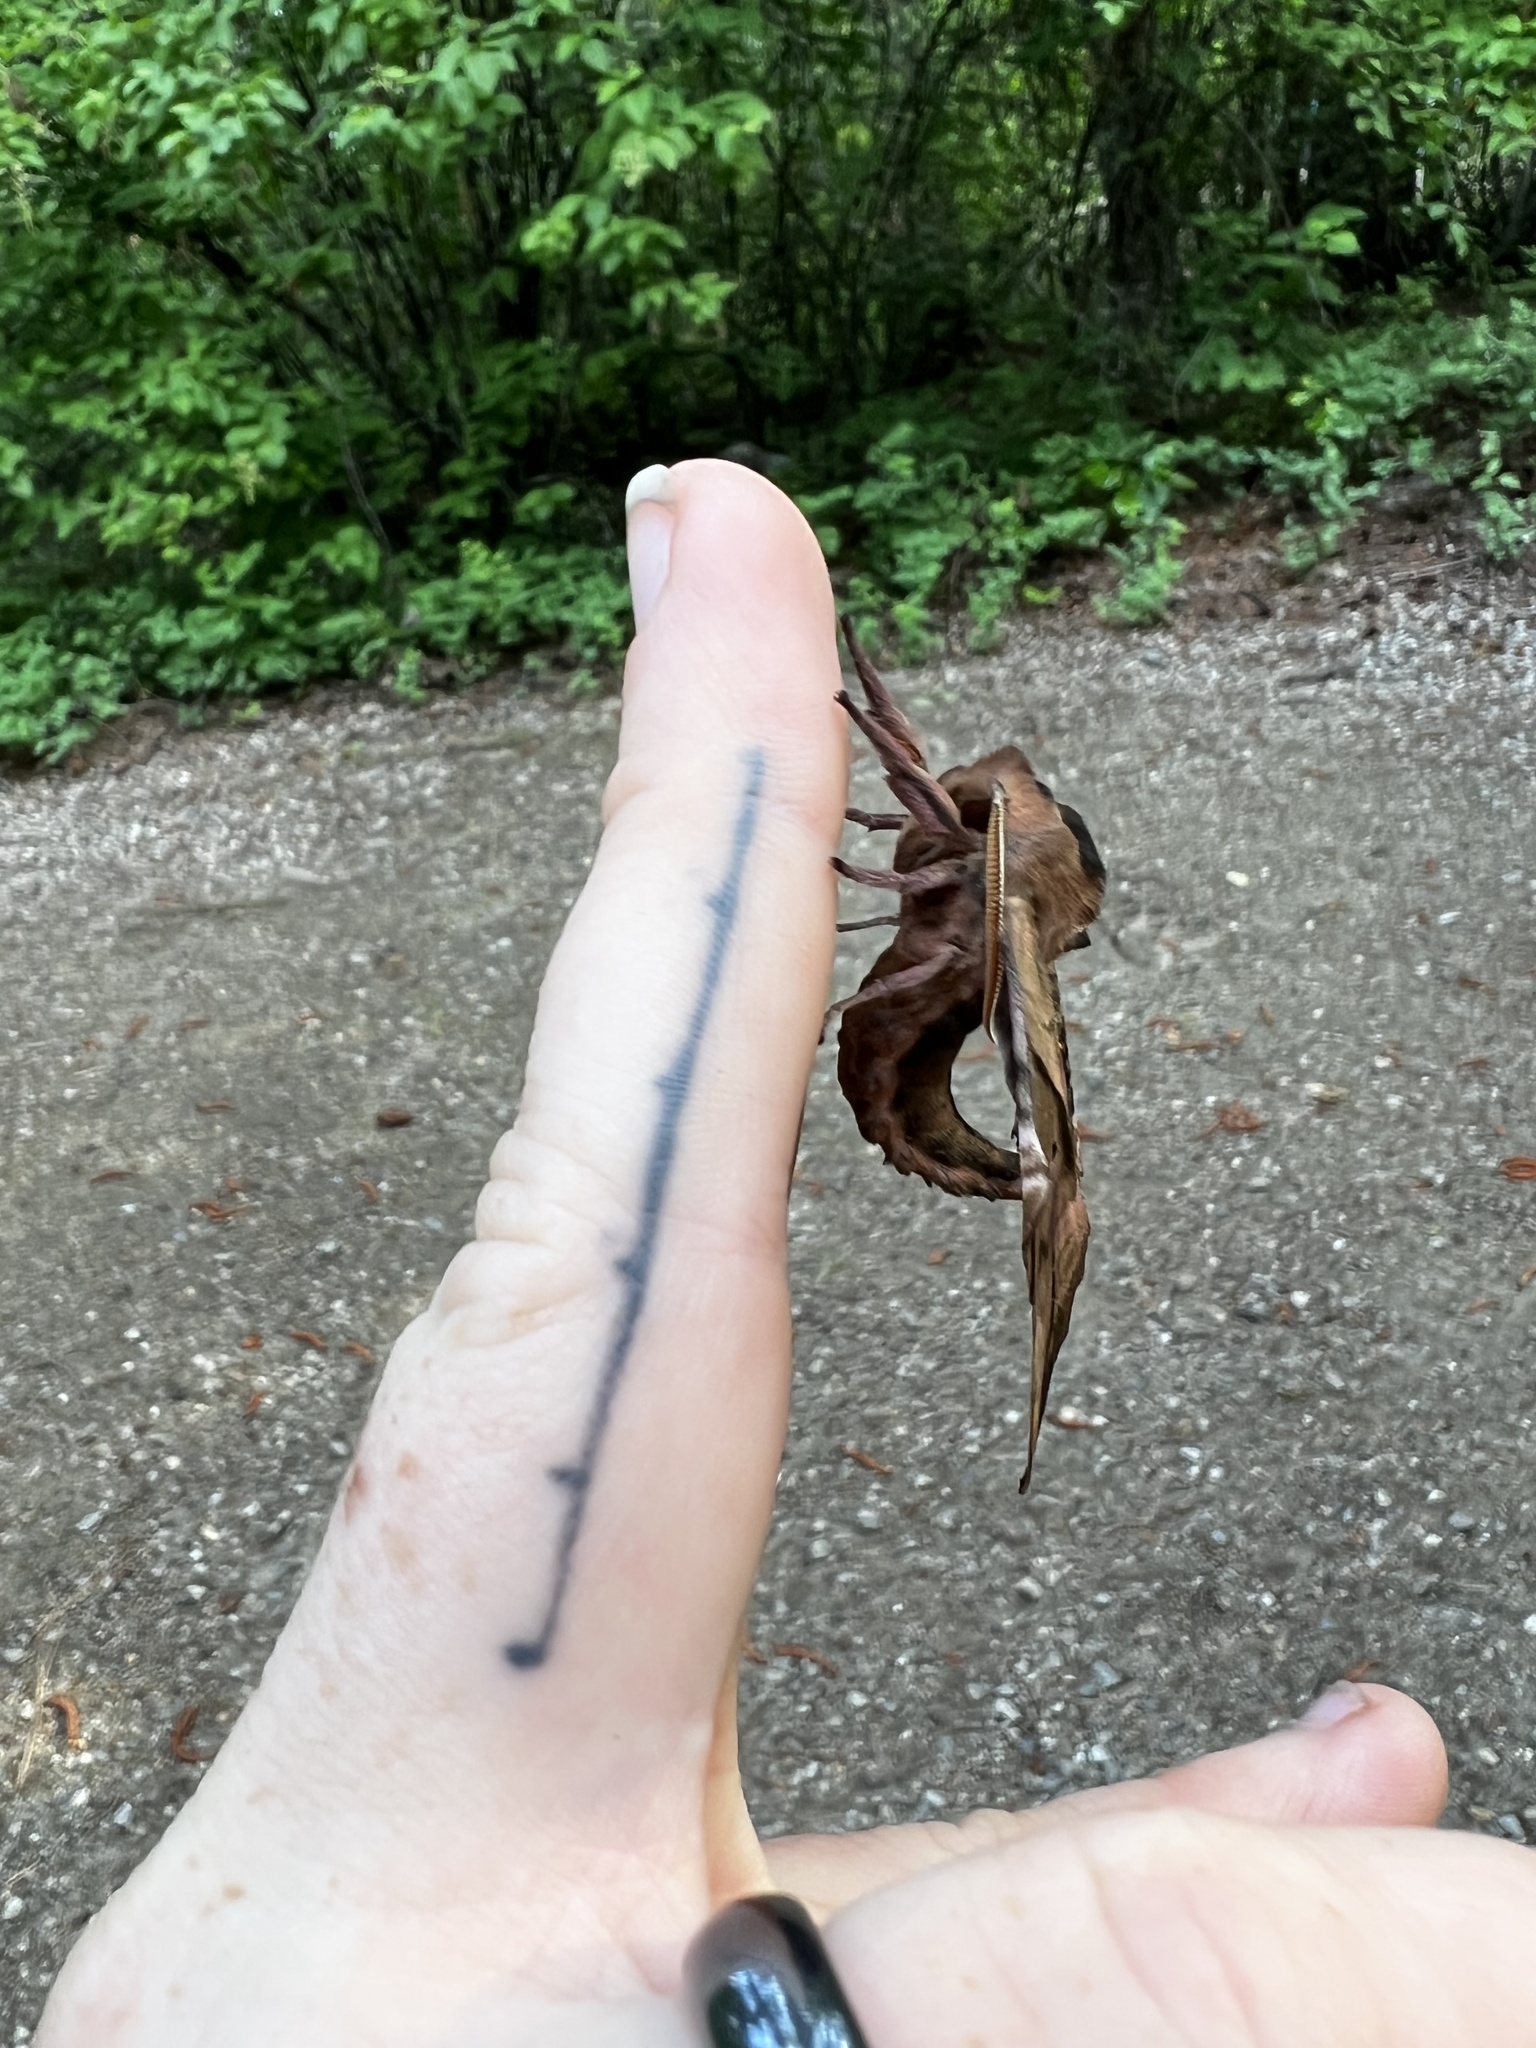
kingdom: Animalia
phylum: Arthropoda
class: Insecta
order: Lepidoptera
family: Sphingidae
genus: Paonias
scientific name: Paonias excaecata
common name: Blind-eyed sphinx
